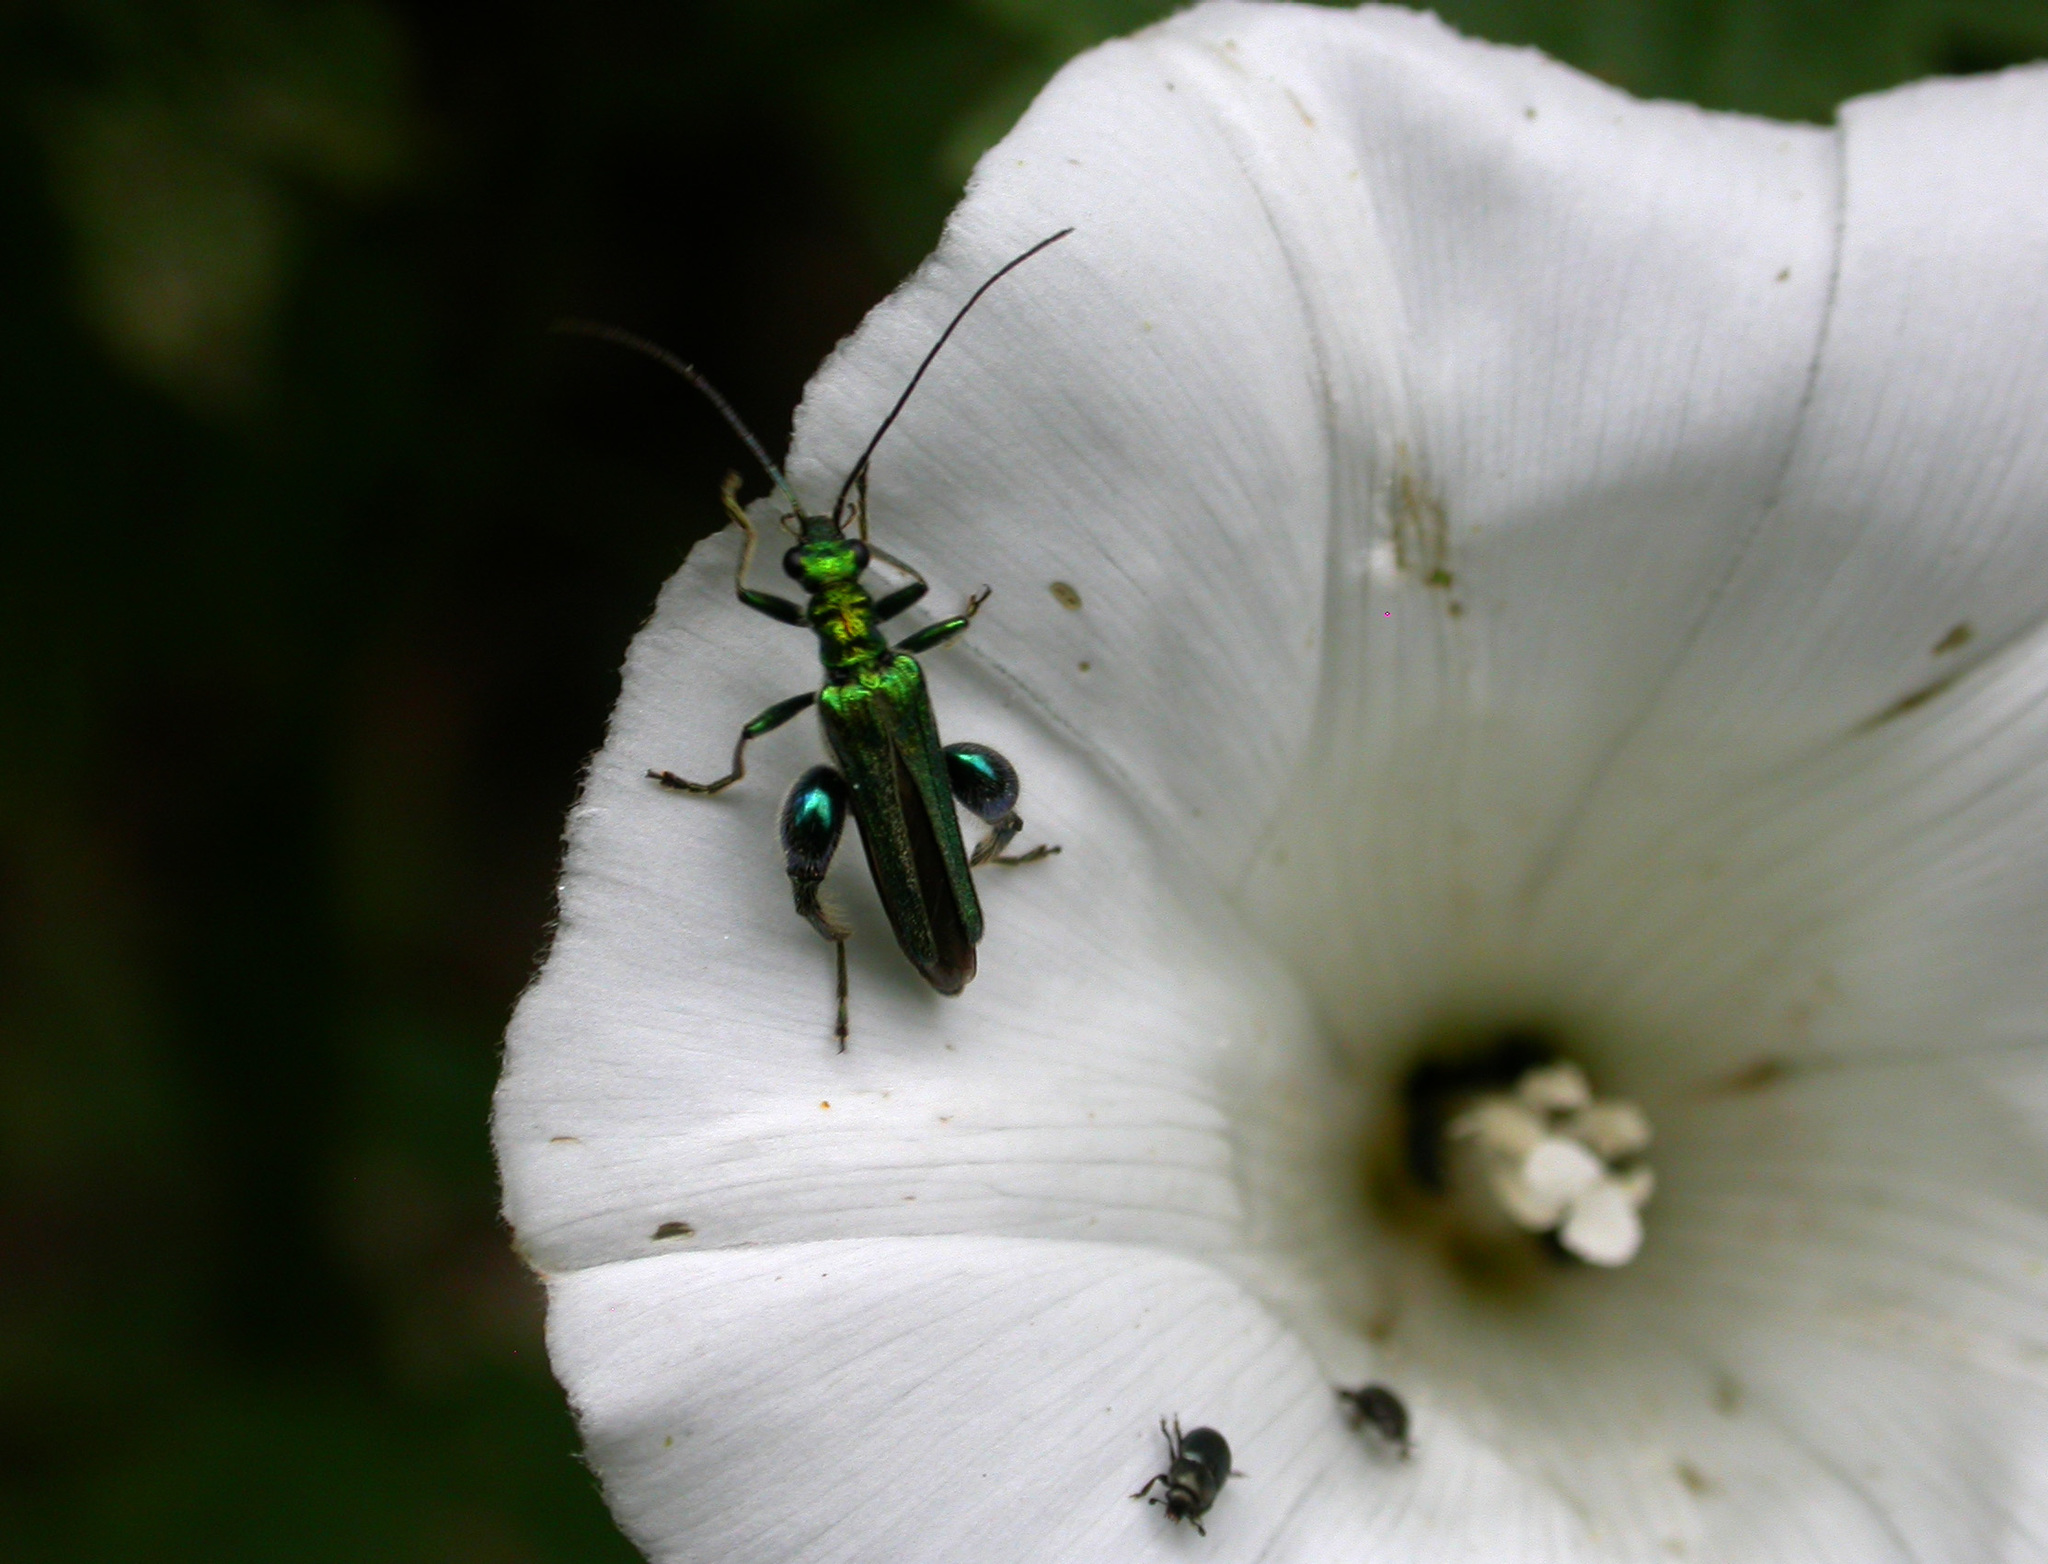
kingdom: Animalia
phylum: Arthropoda
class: Insecta
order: Coleoptera
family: Oedemeridae
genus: Oedemera
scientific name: Oedemera nobilis
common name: Swollen-thighed beetle
